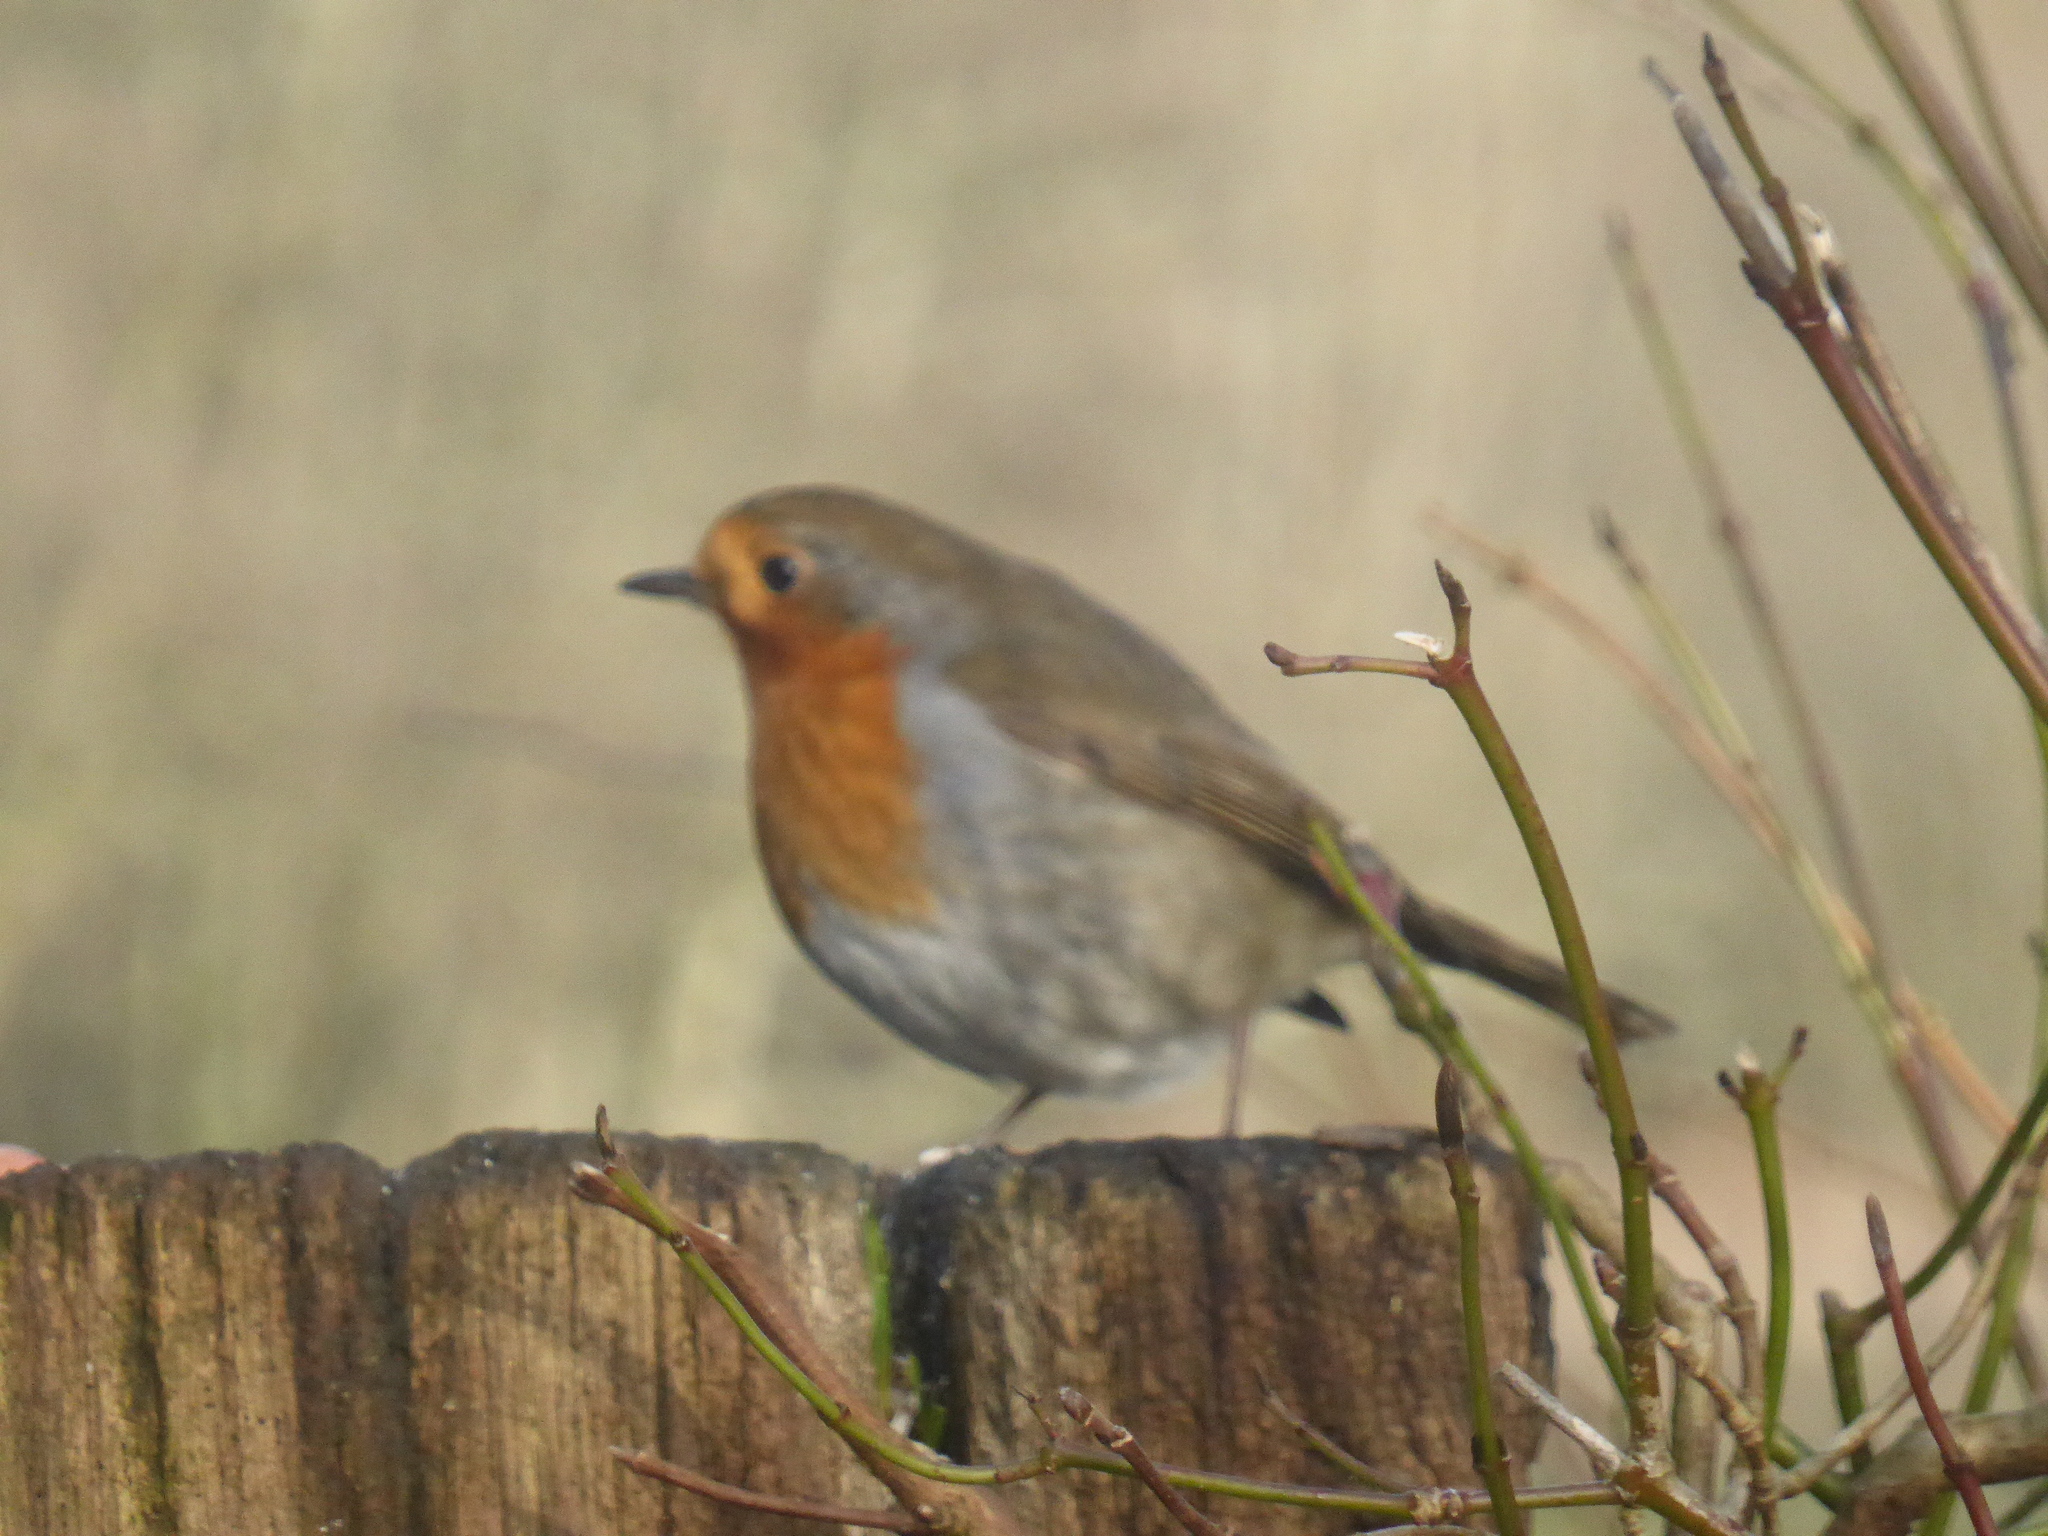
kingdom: Animalia
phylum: Chordata
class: Aves
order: Passeriformes
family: Muscicapidae
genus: Erithacus
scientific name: Erithacus rubecula
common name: European robin
